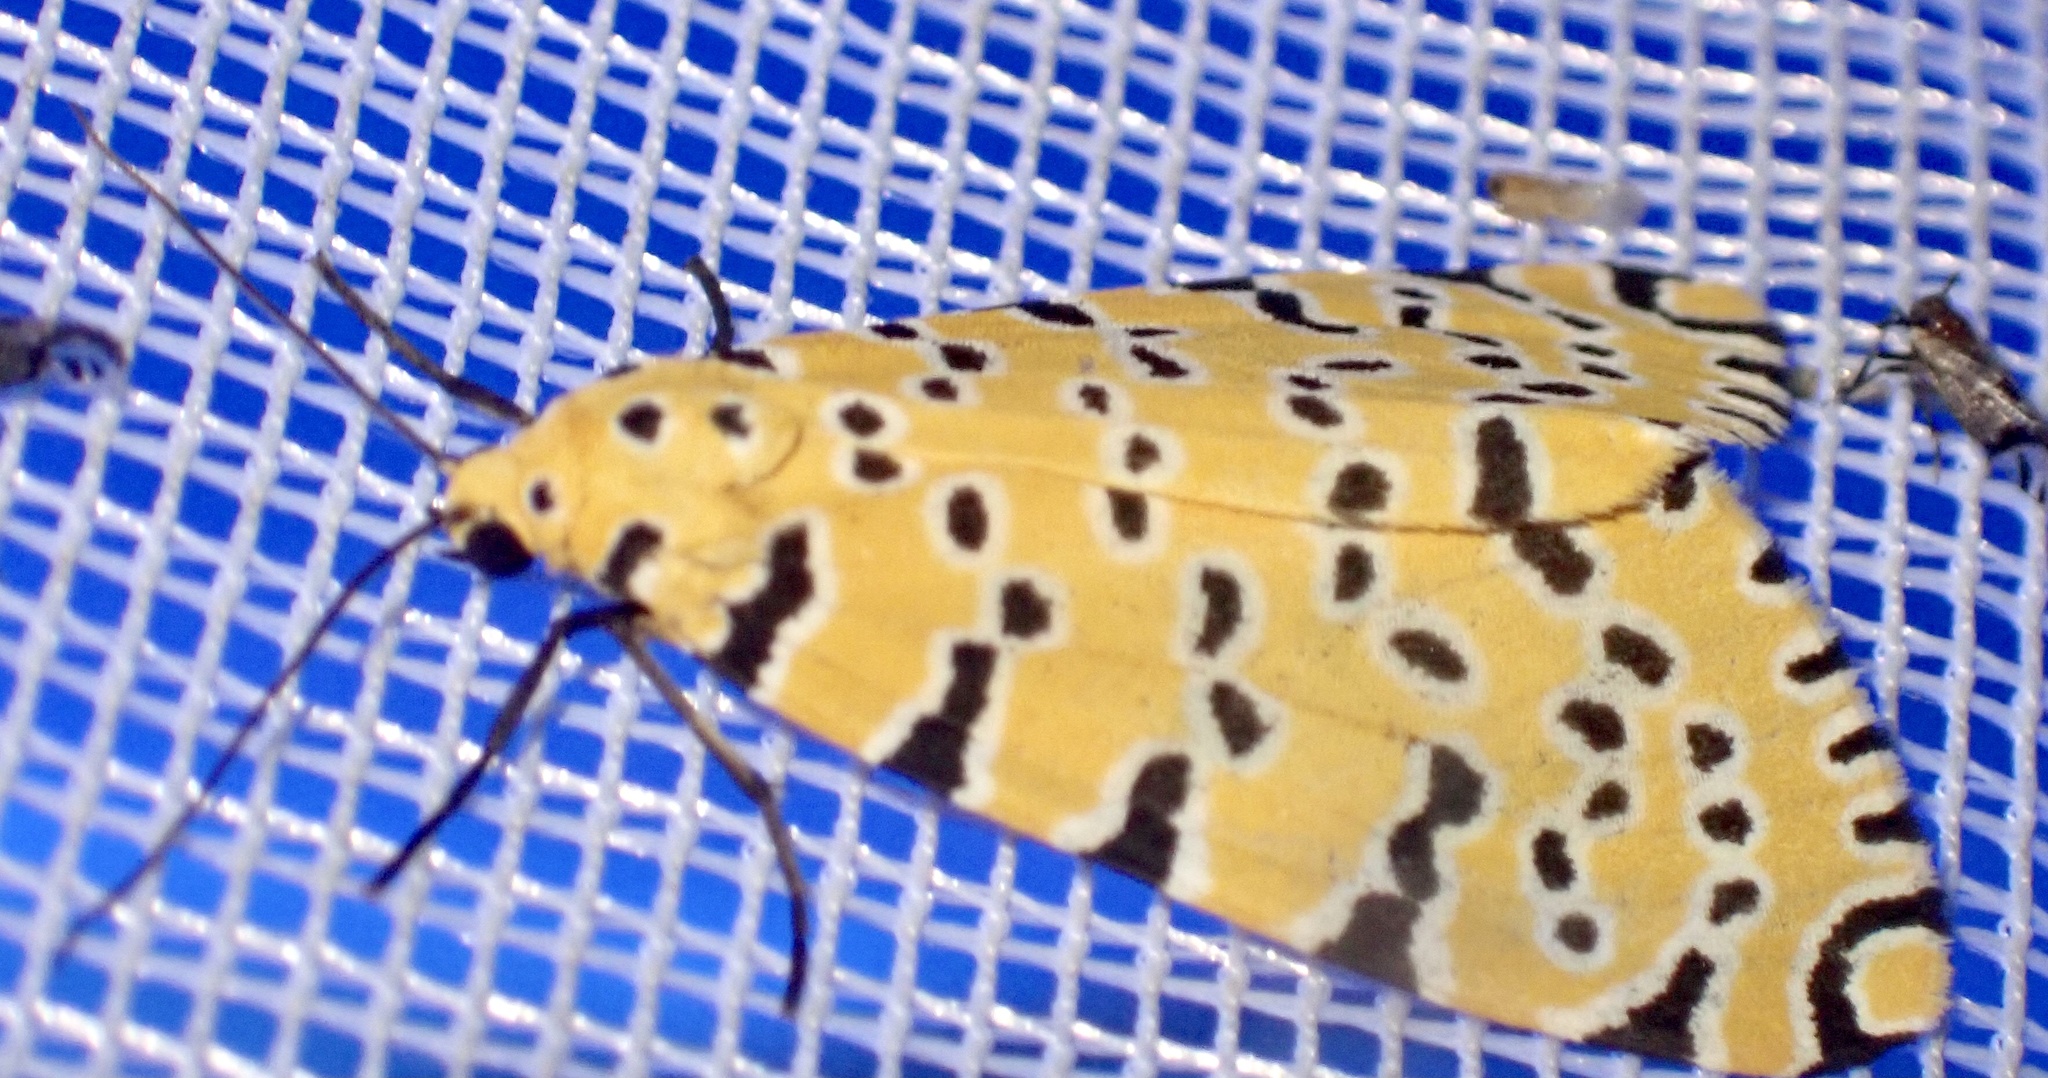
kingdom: Animalia
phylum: Arthropoda
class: Insecta
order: Lepidoptera
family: Erebidae
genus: Argina
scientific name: Argina Alytarchia amanda
